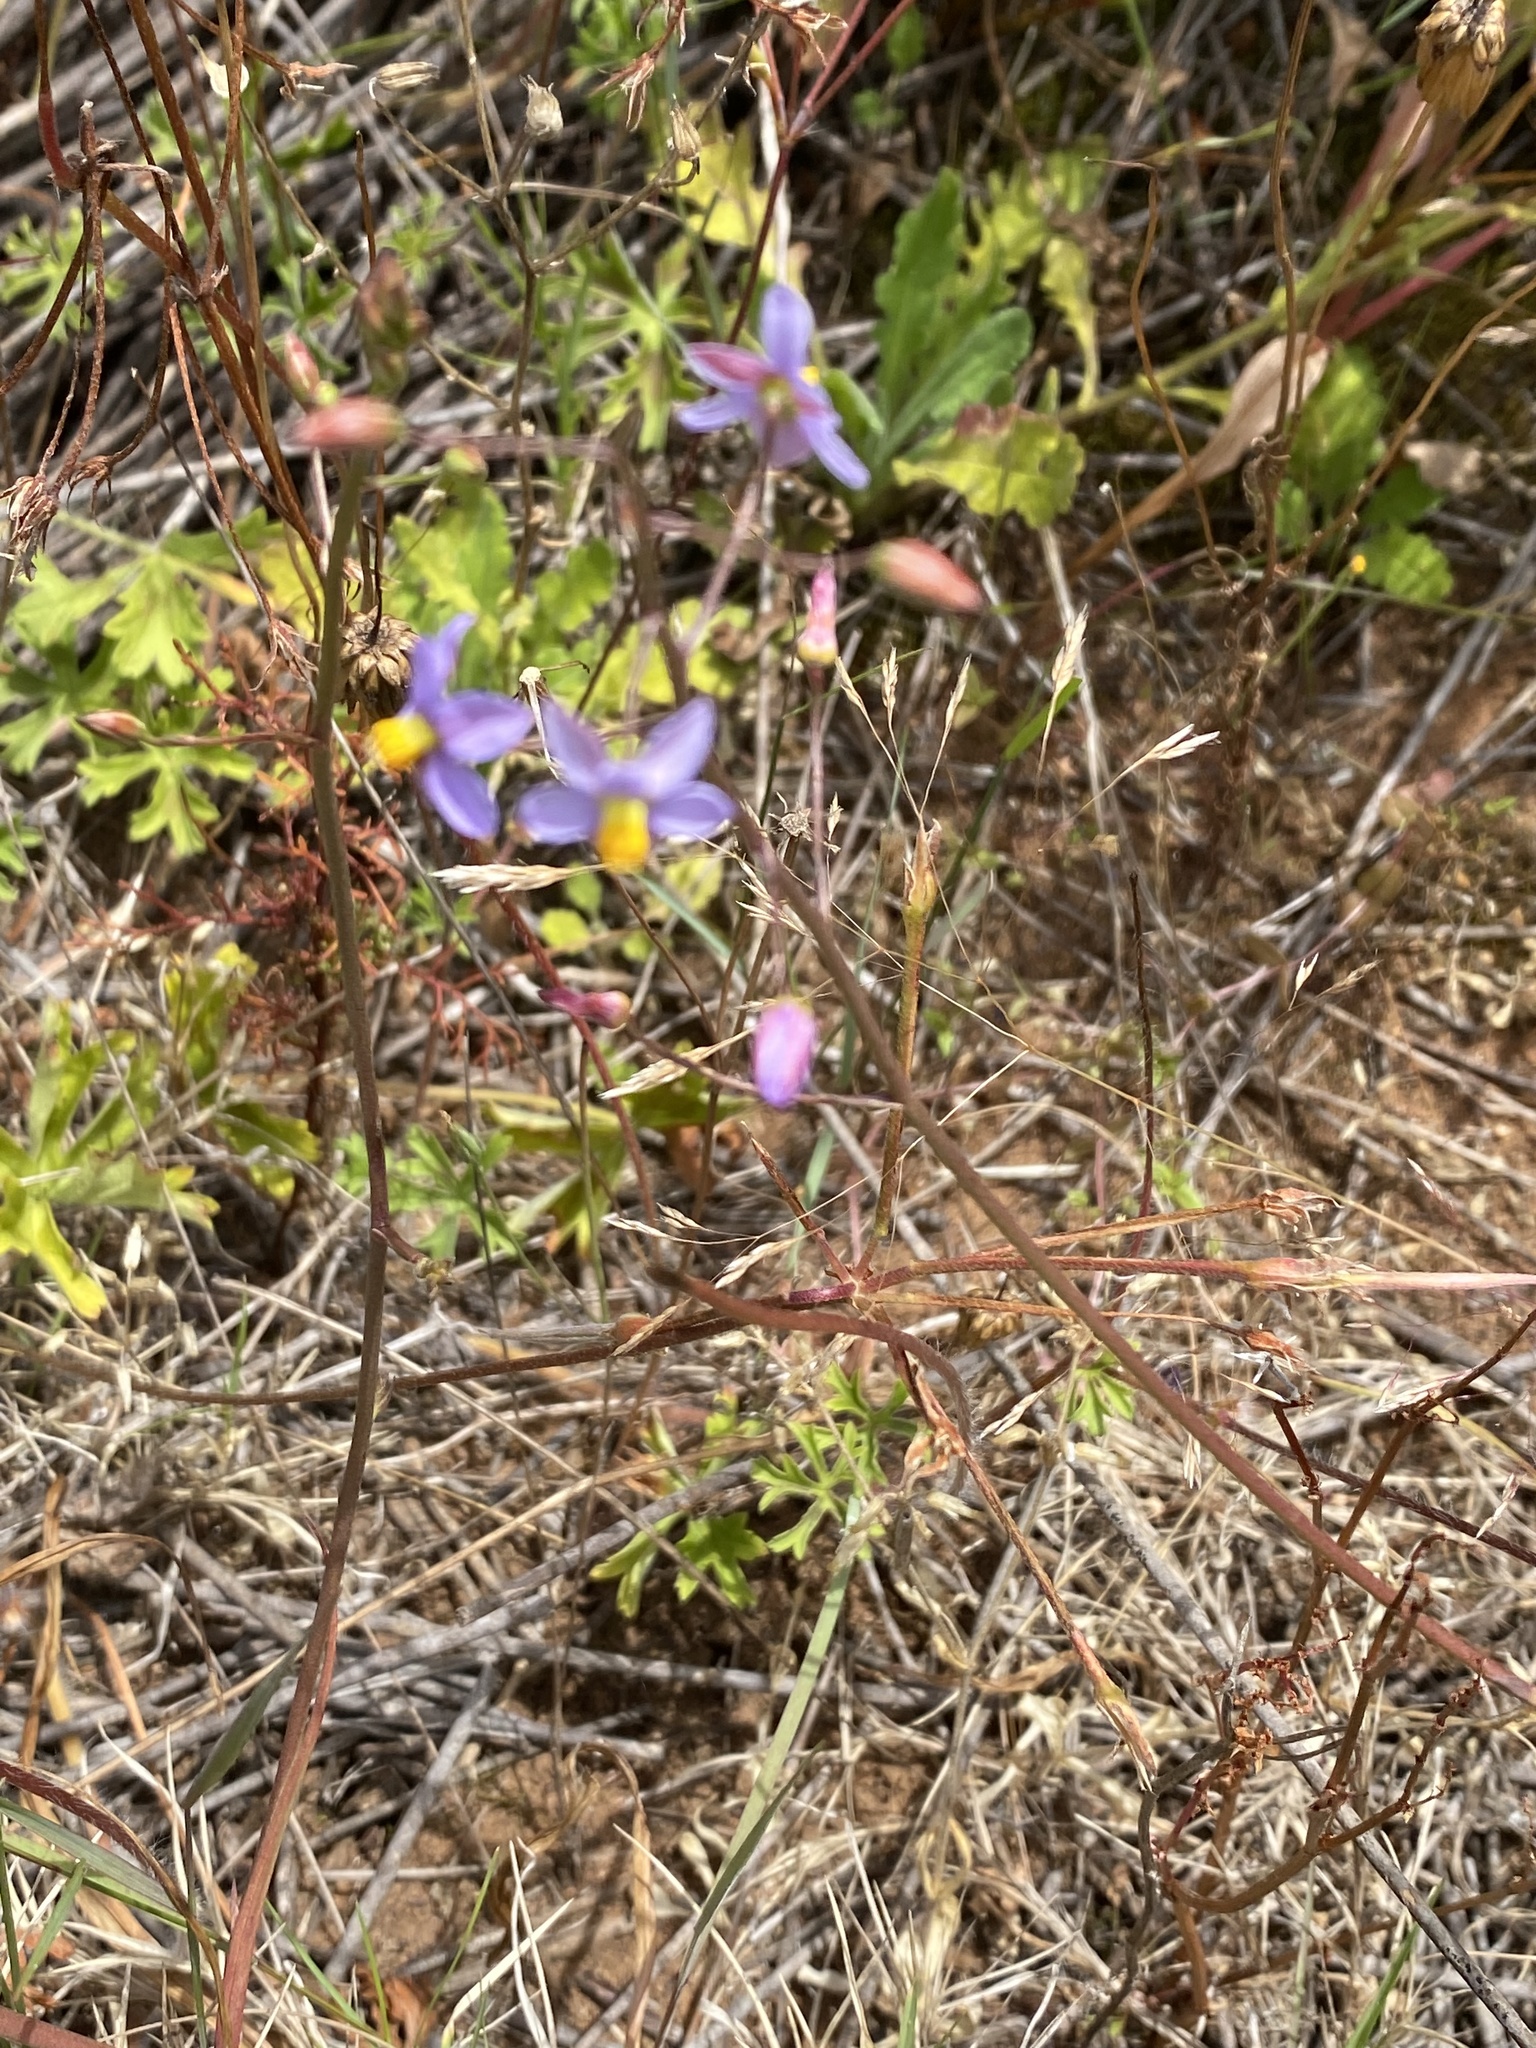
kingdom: Plantae
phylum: Tracheophyta
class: Liliopsida
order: Asparagales
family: Tecophilaeaceae
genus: Cyanella
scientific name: Cyanella hyacinthoides
